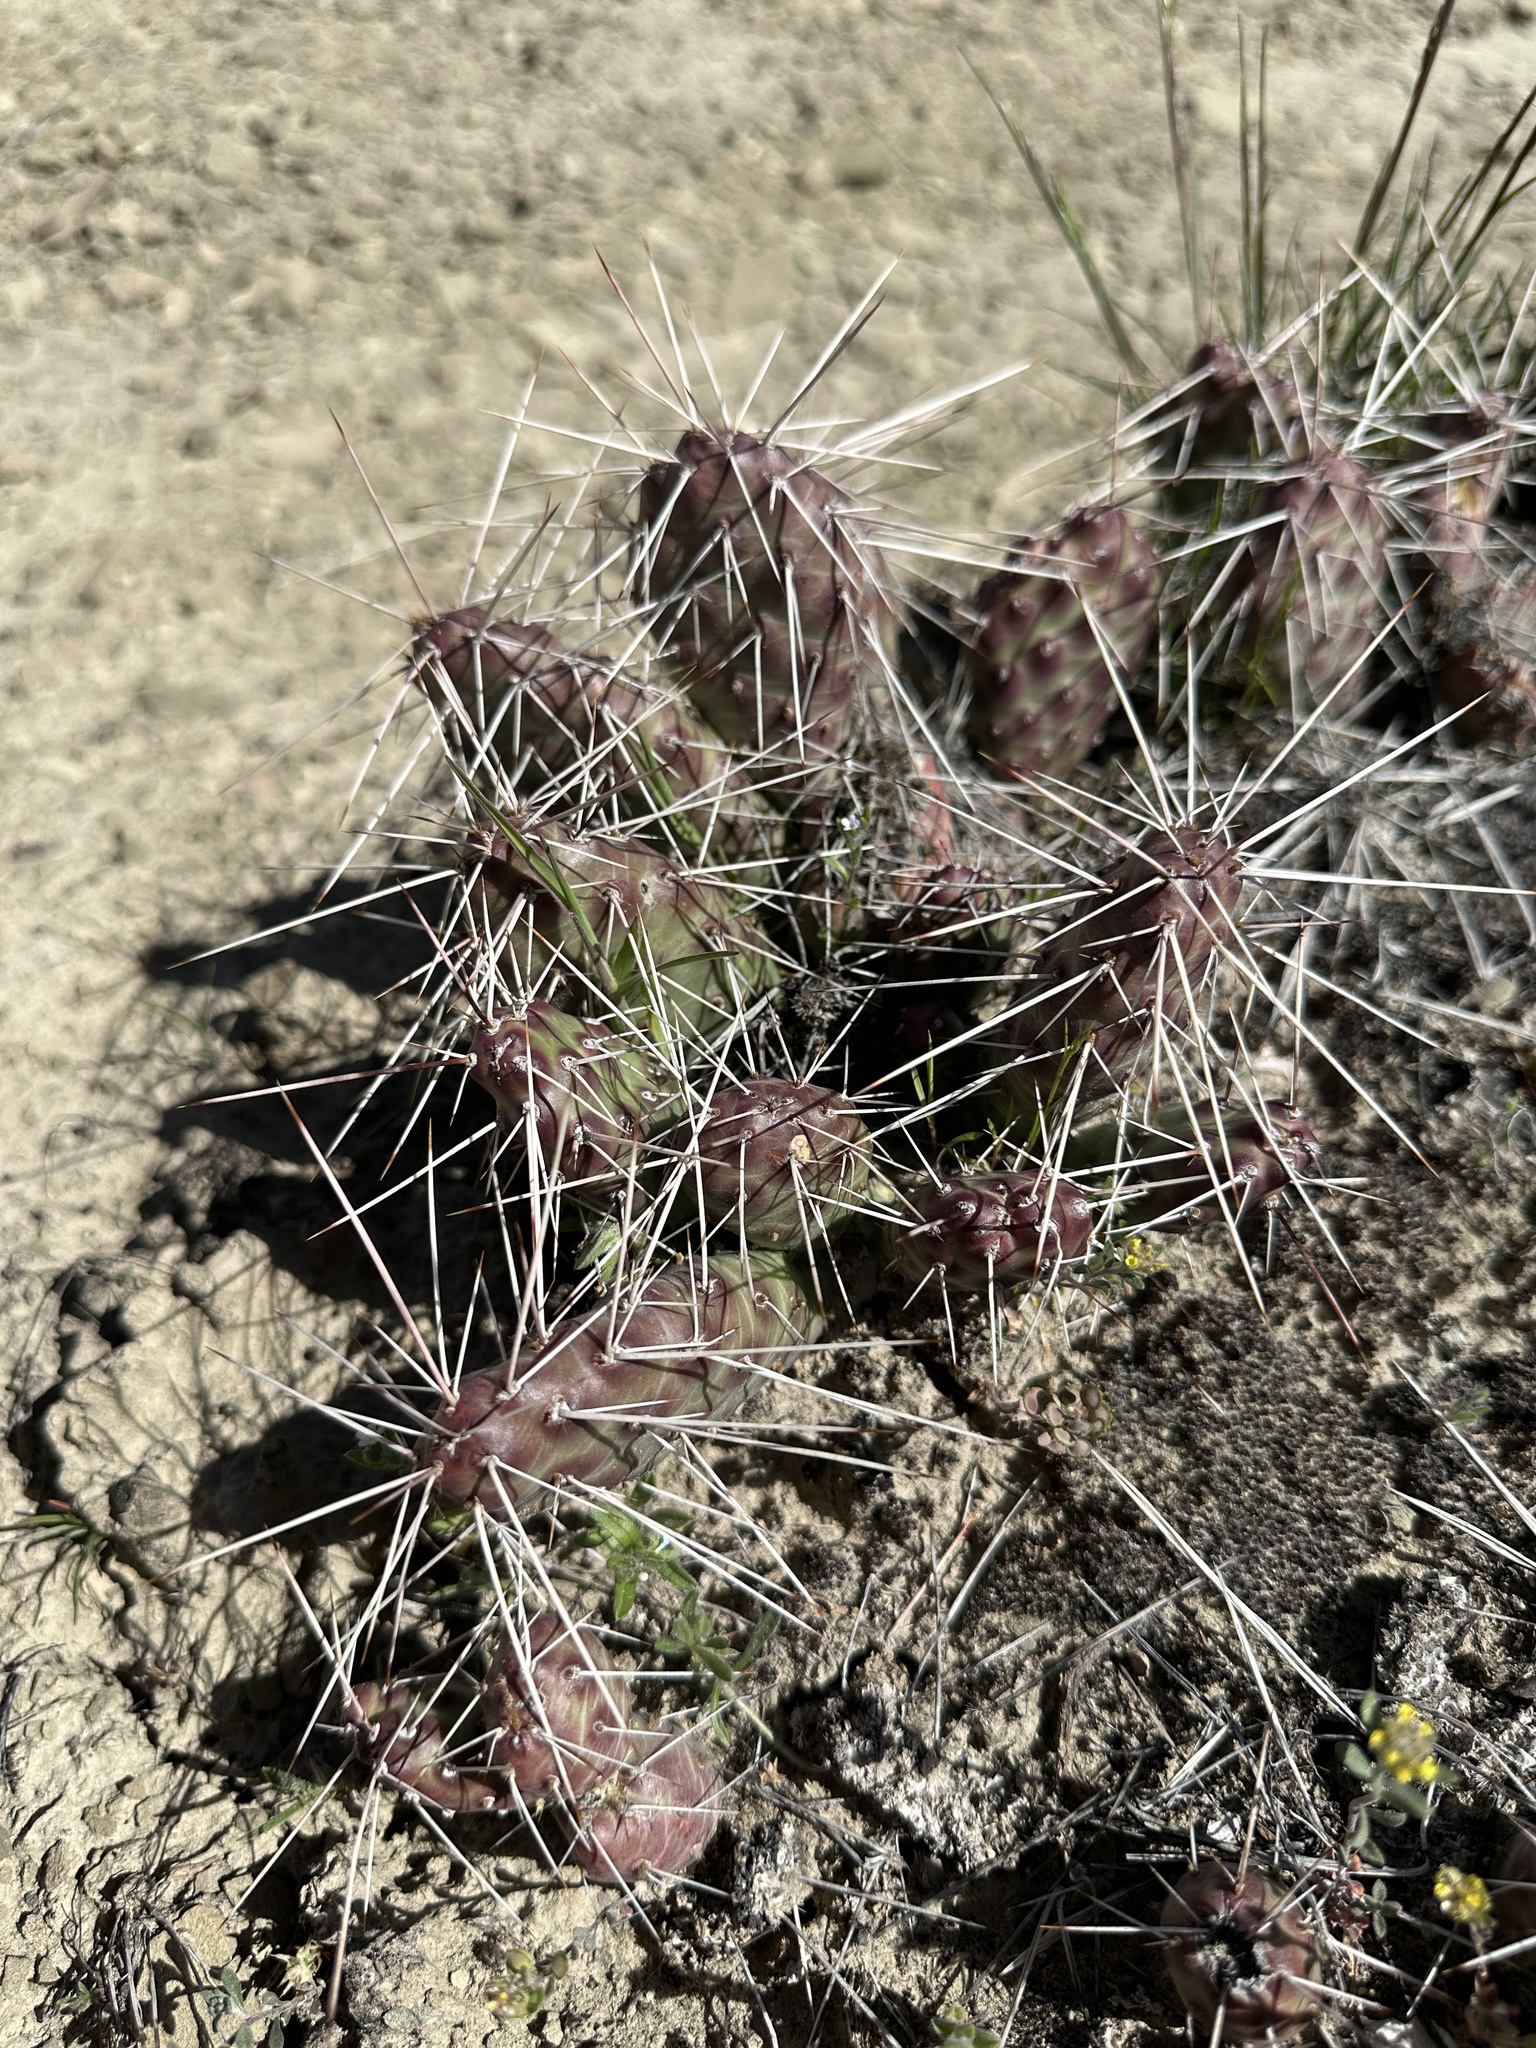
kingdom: Plantae
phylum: Tracheophyta
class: Magnoliopsida
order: Caryophyllales
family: Cactaceae
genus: Opuntia
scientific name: Opuntia coloradensis
